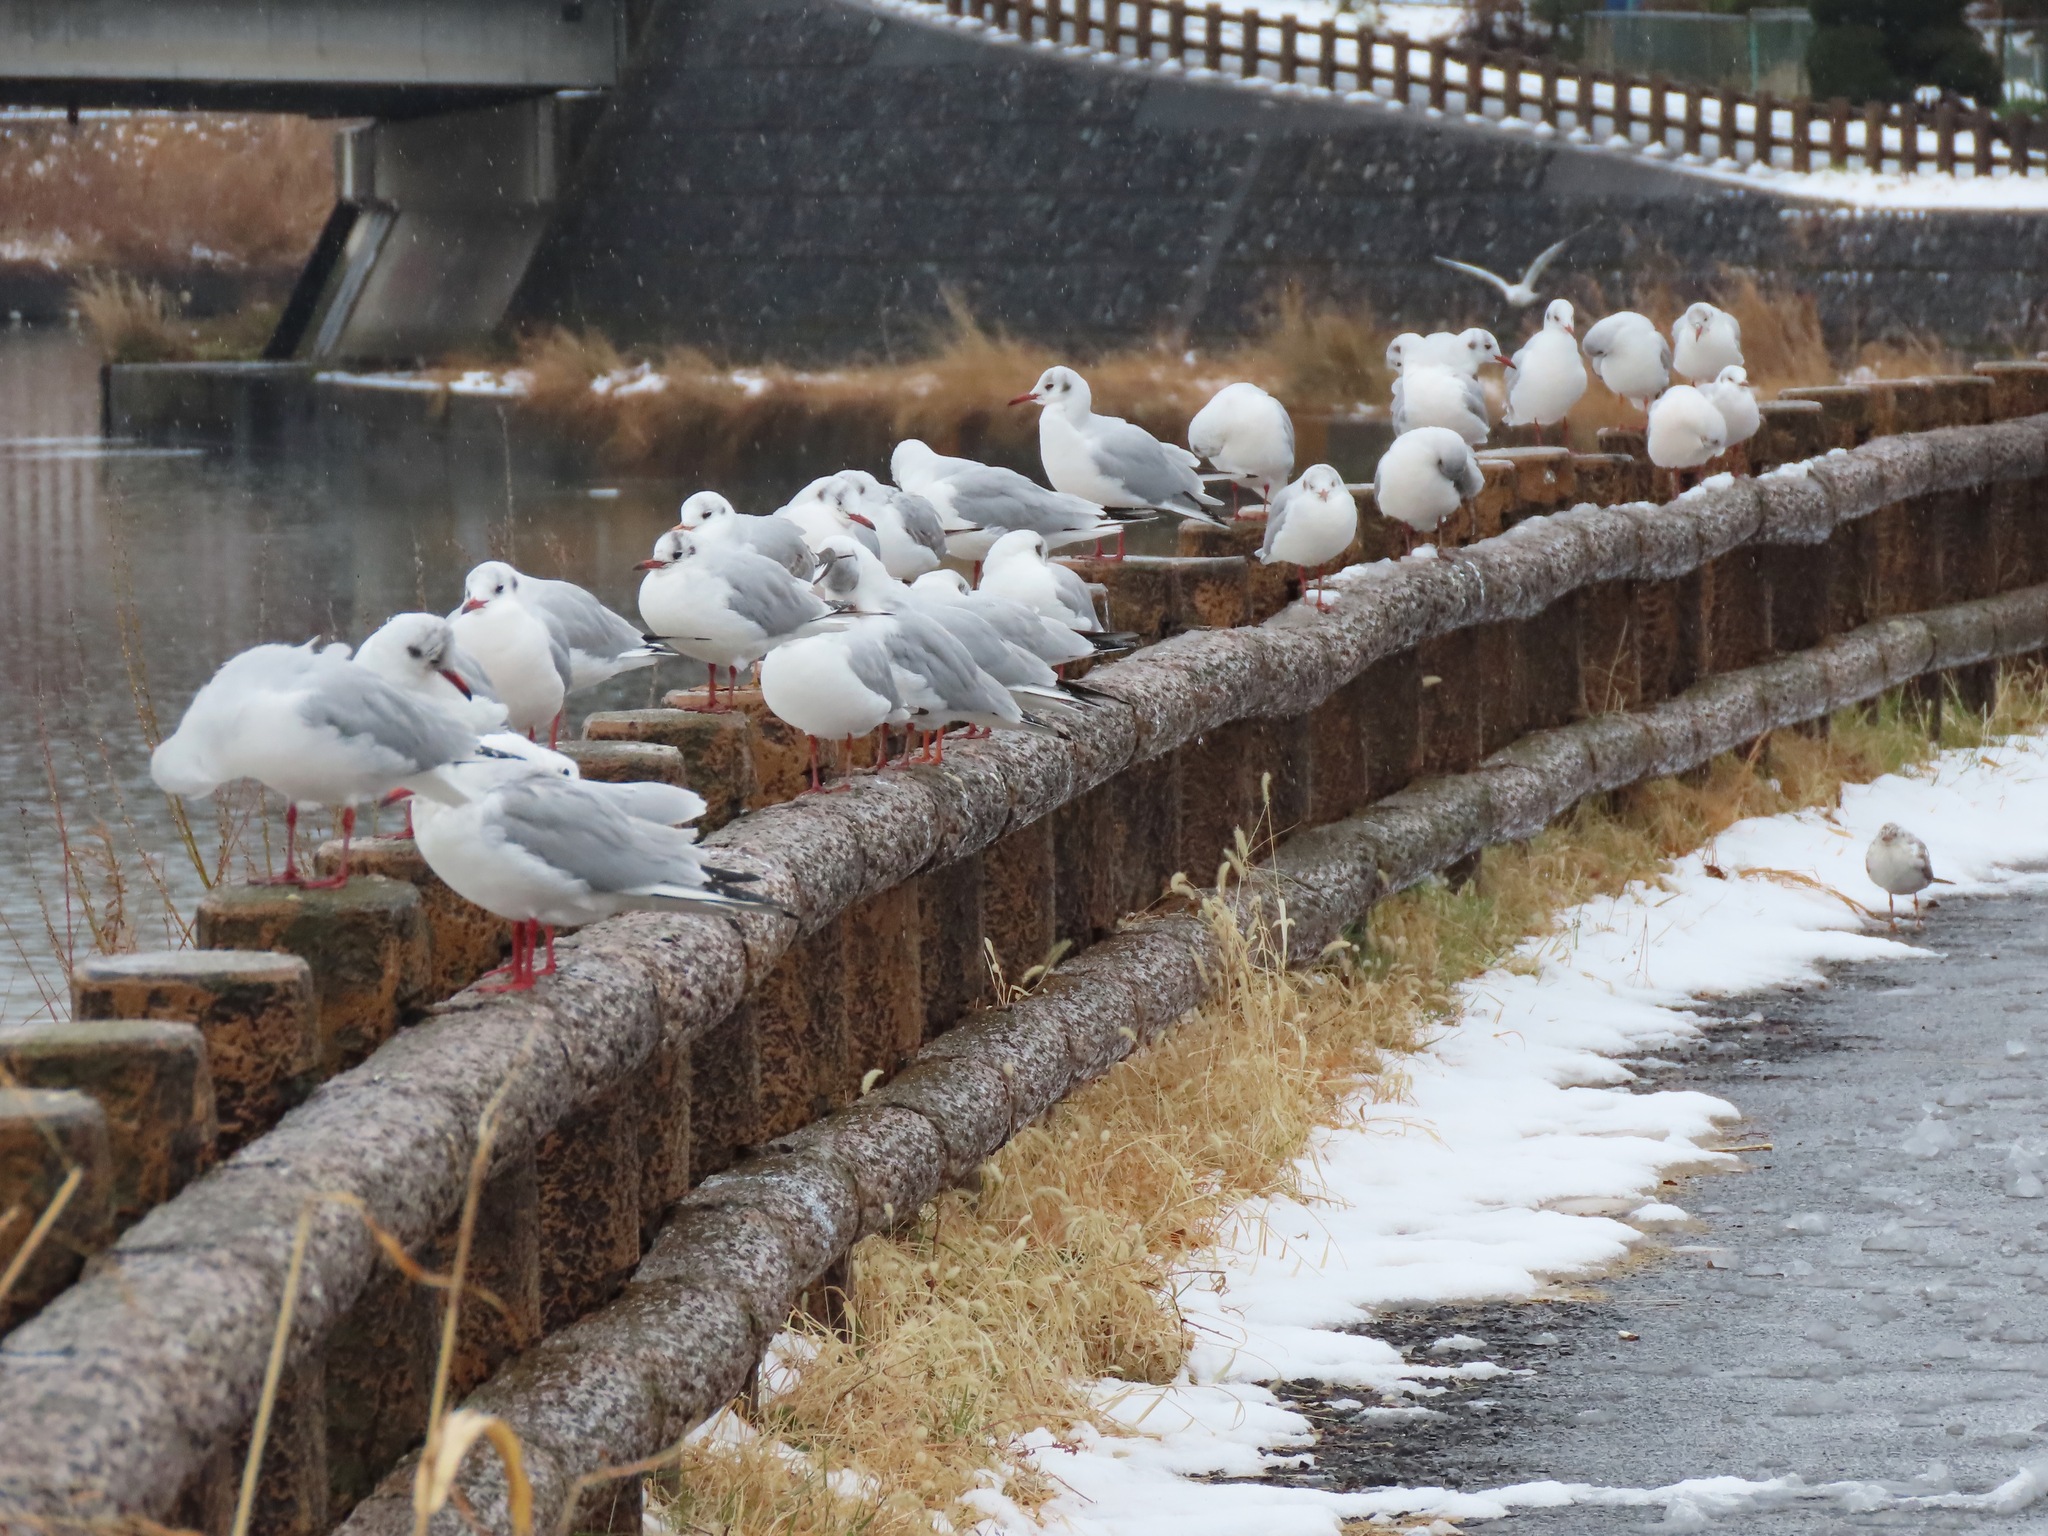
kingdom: Animalia
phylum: Chordata
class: Aves
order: Charadriiformes
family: Laridae
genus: Chroicocephalus
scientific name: Chroicocephalus ridibundus
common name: Black-headed gull
